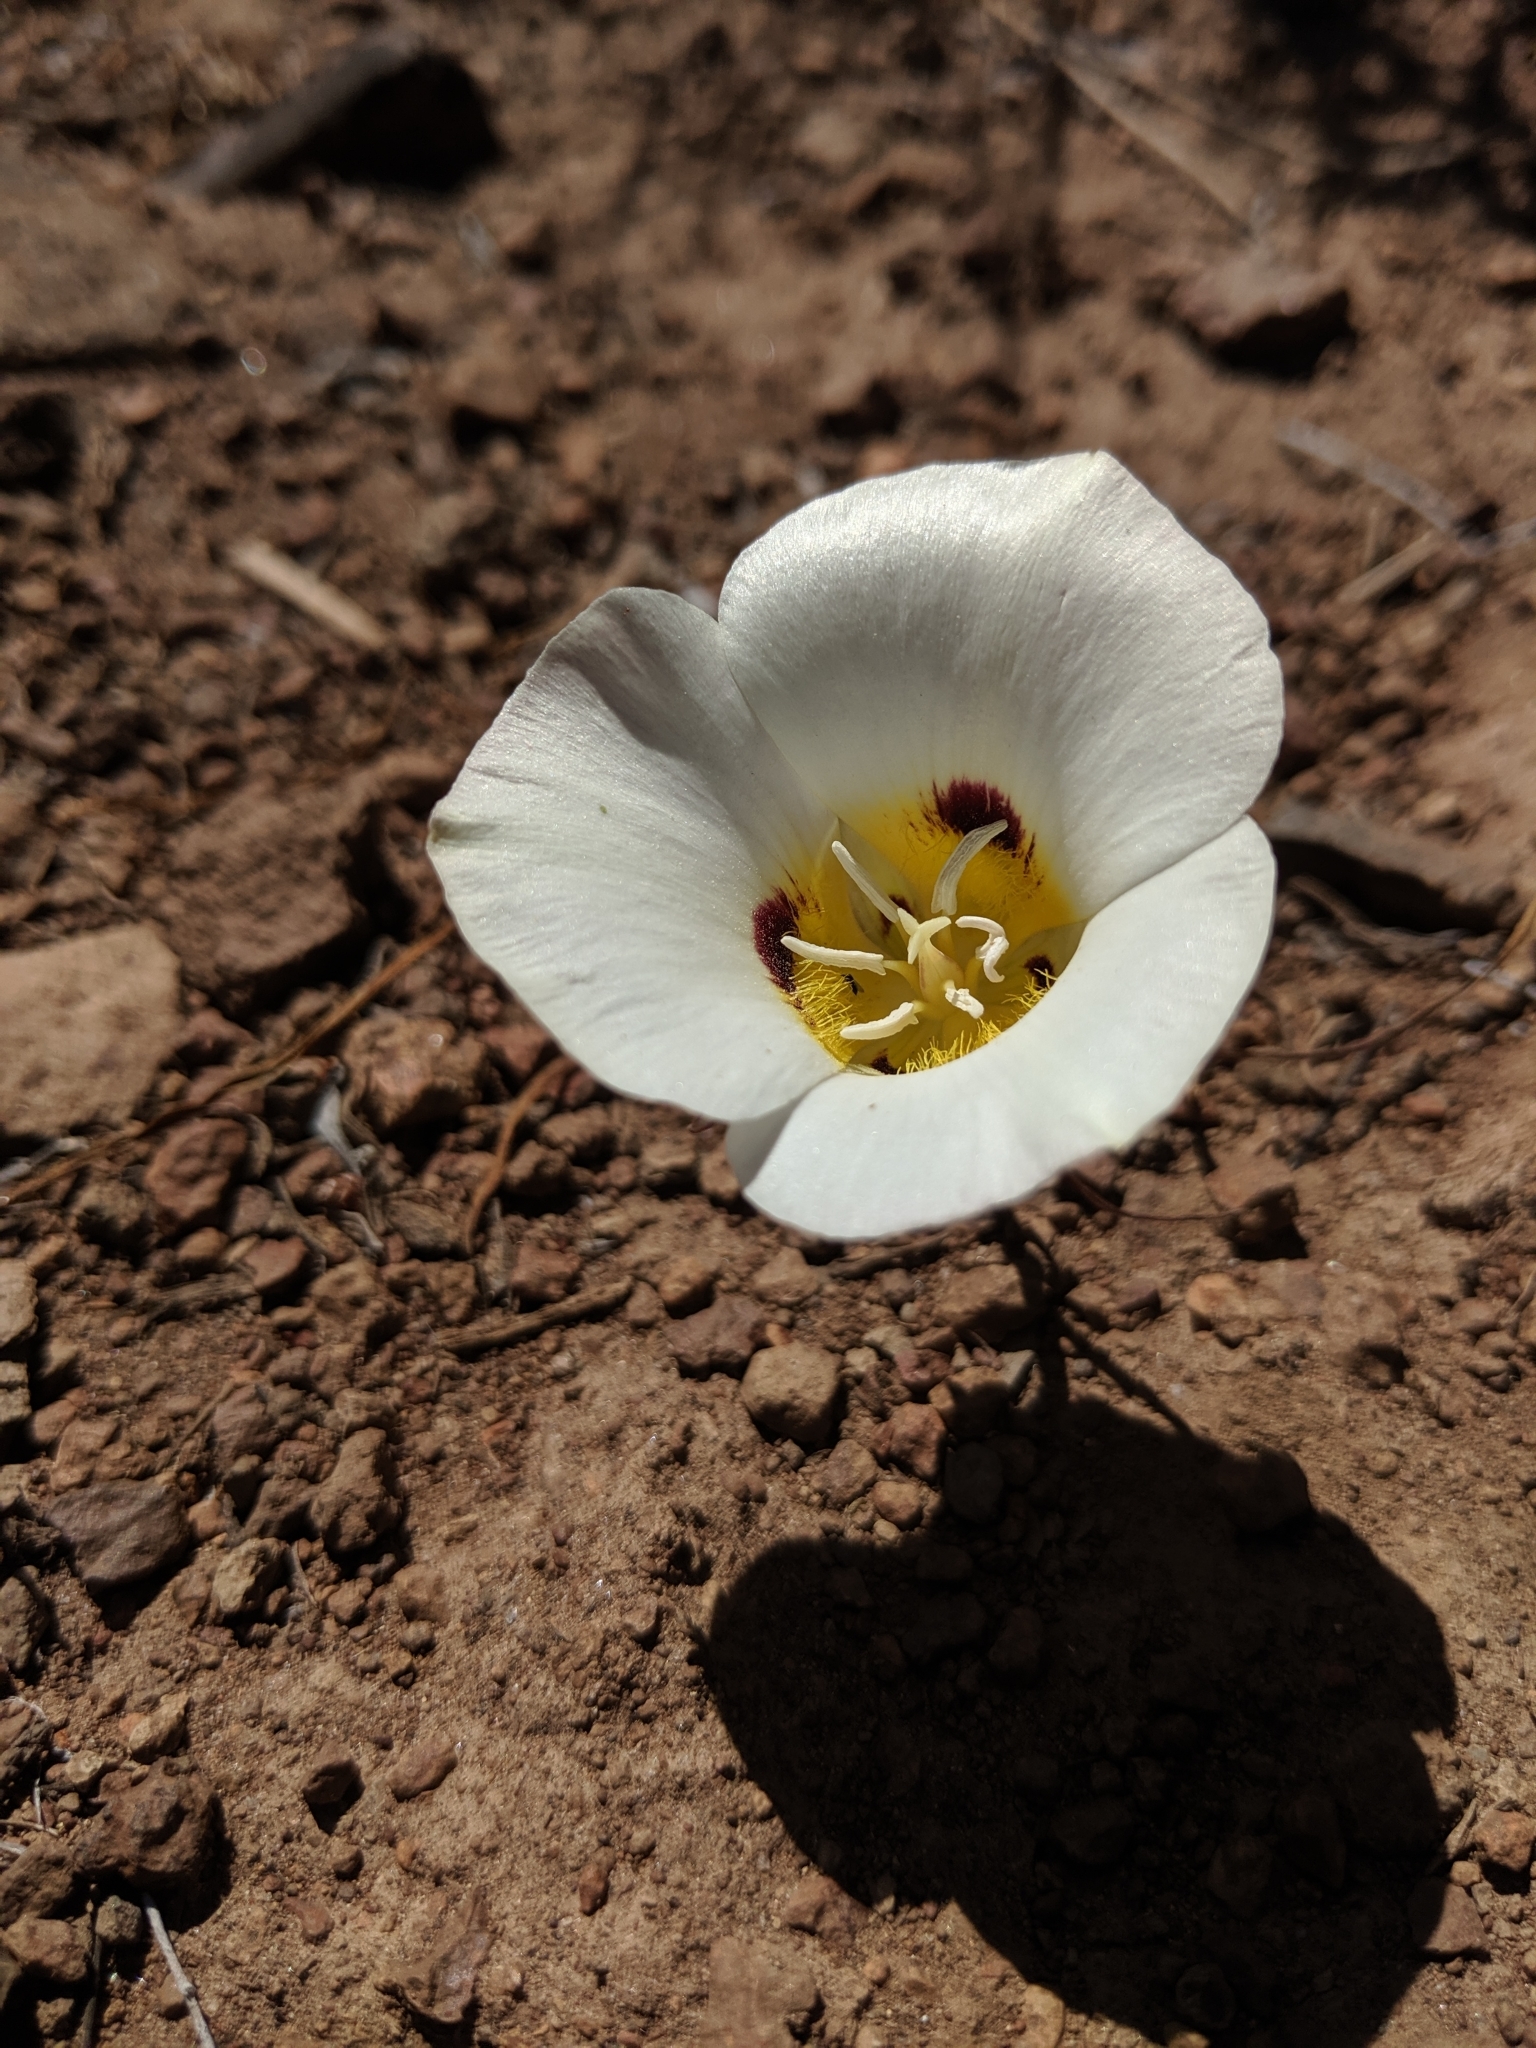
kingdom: Plantae
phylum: Tracheophyta
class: Liliopsida
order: Liliales
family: Liliaceae
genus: Calochortus
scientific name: Calochortus leichtlinii
